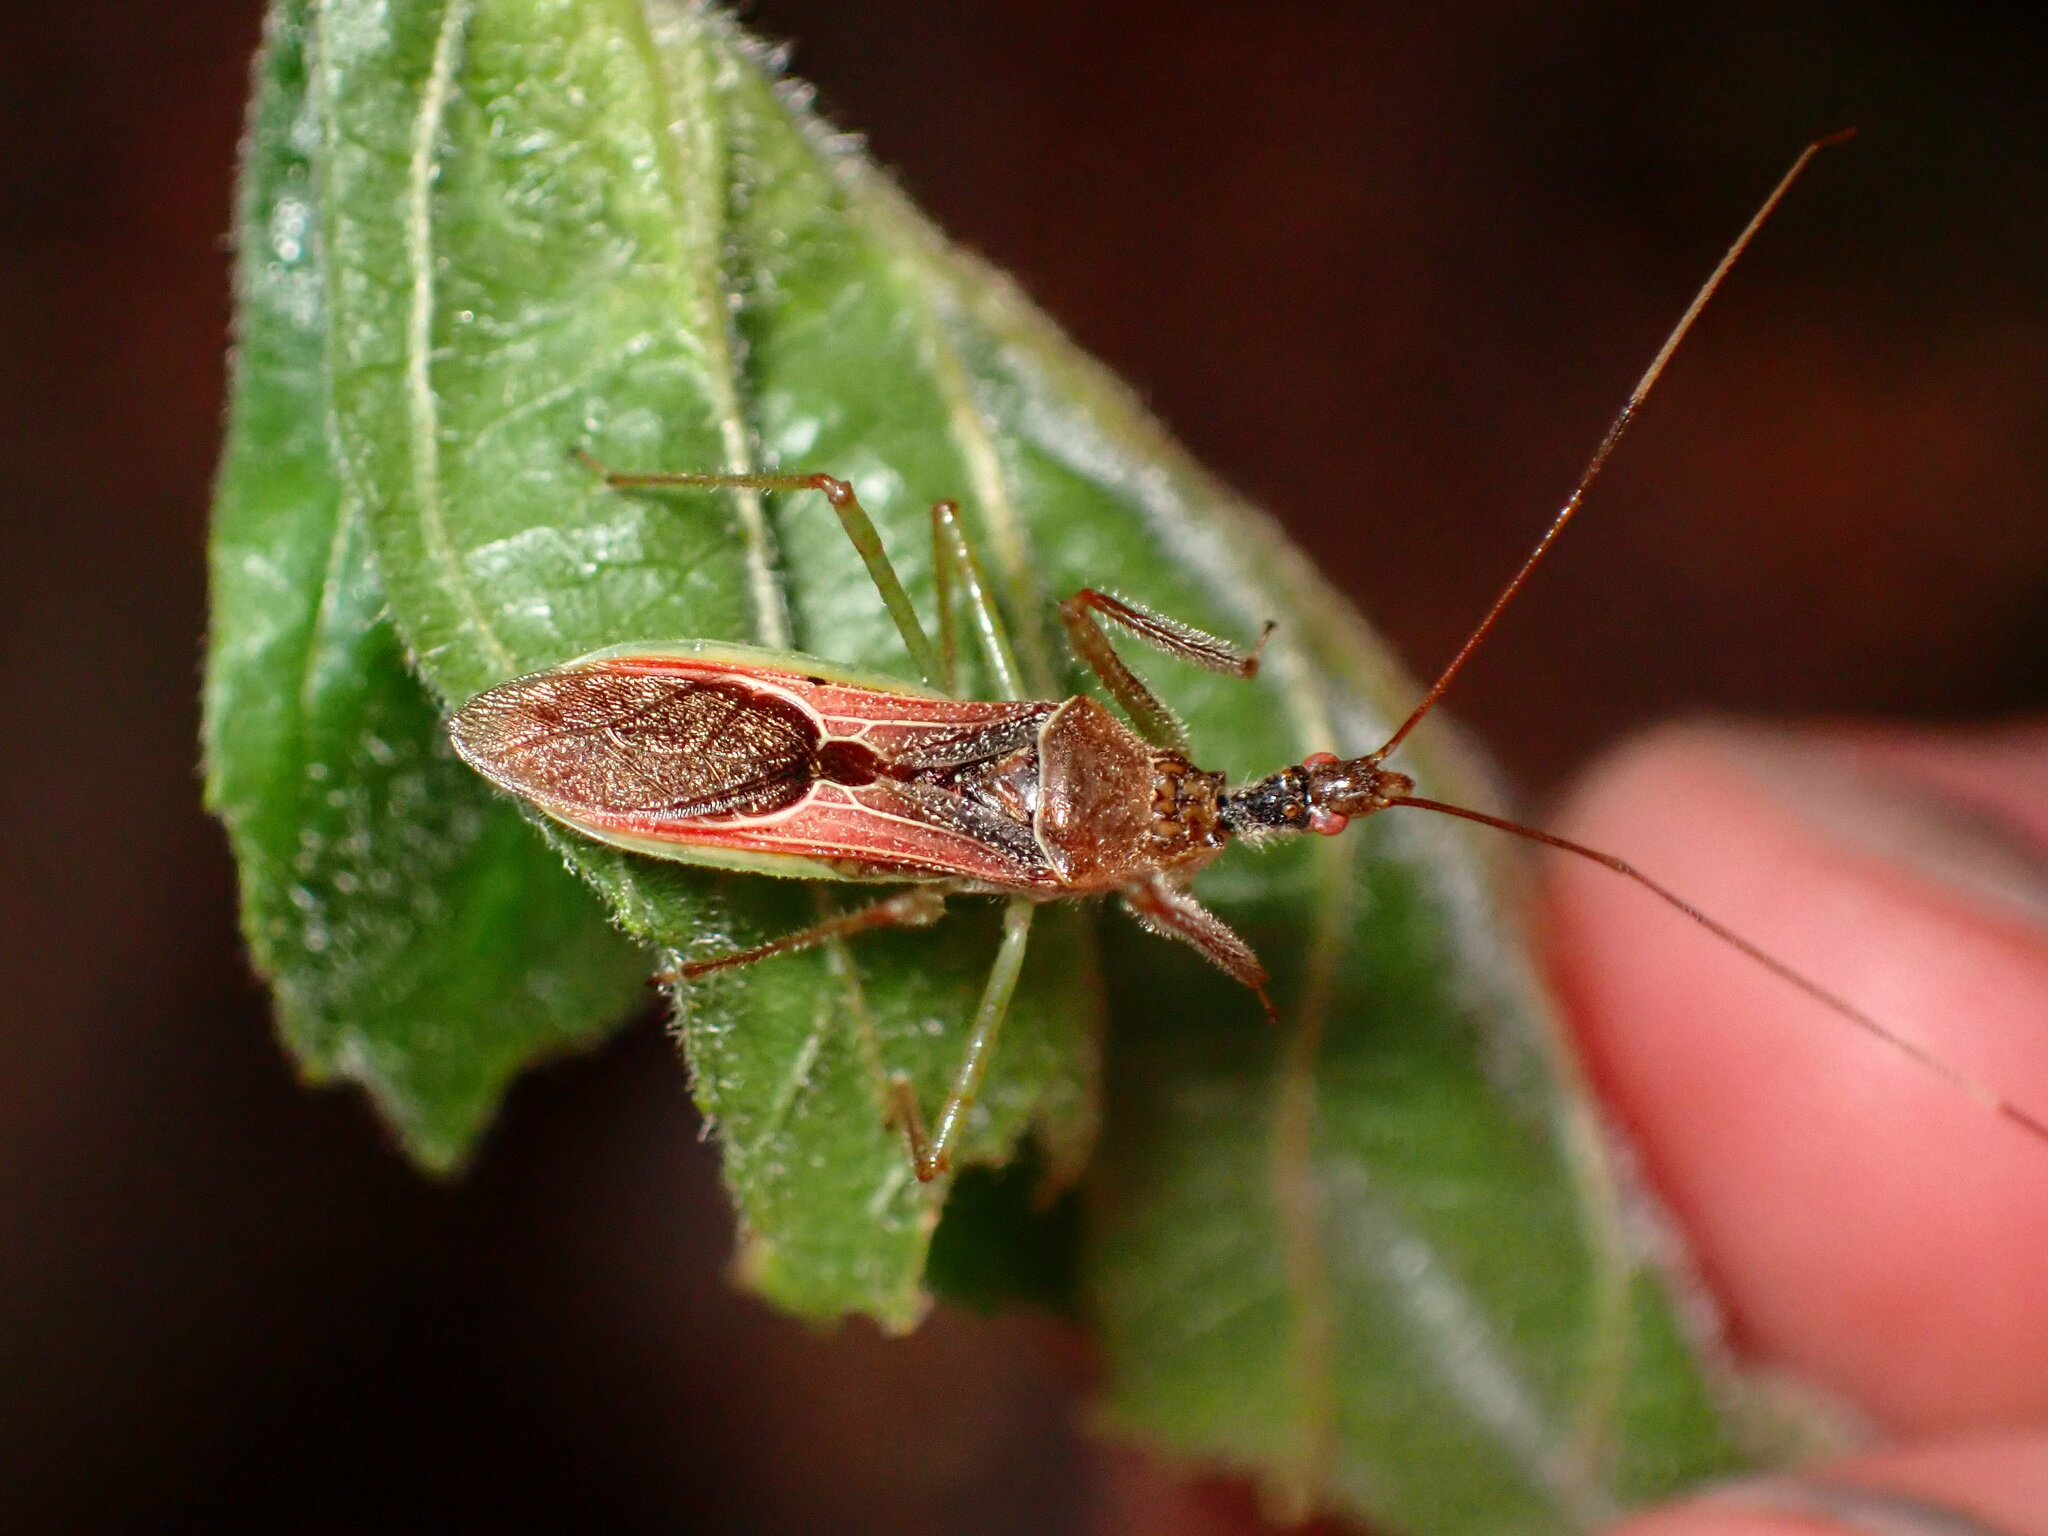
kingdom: Animalia
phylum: Arthropoda
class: Insecta
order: Hemiptera
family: Reduviidae
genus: Zelus
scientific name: Zelus renardii
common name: Assassin bug
